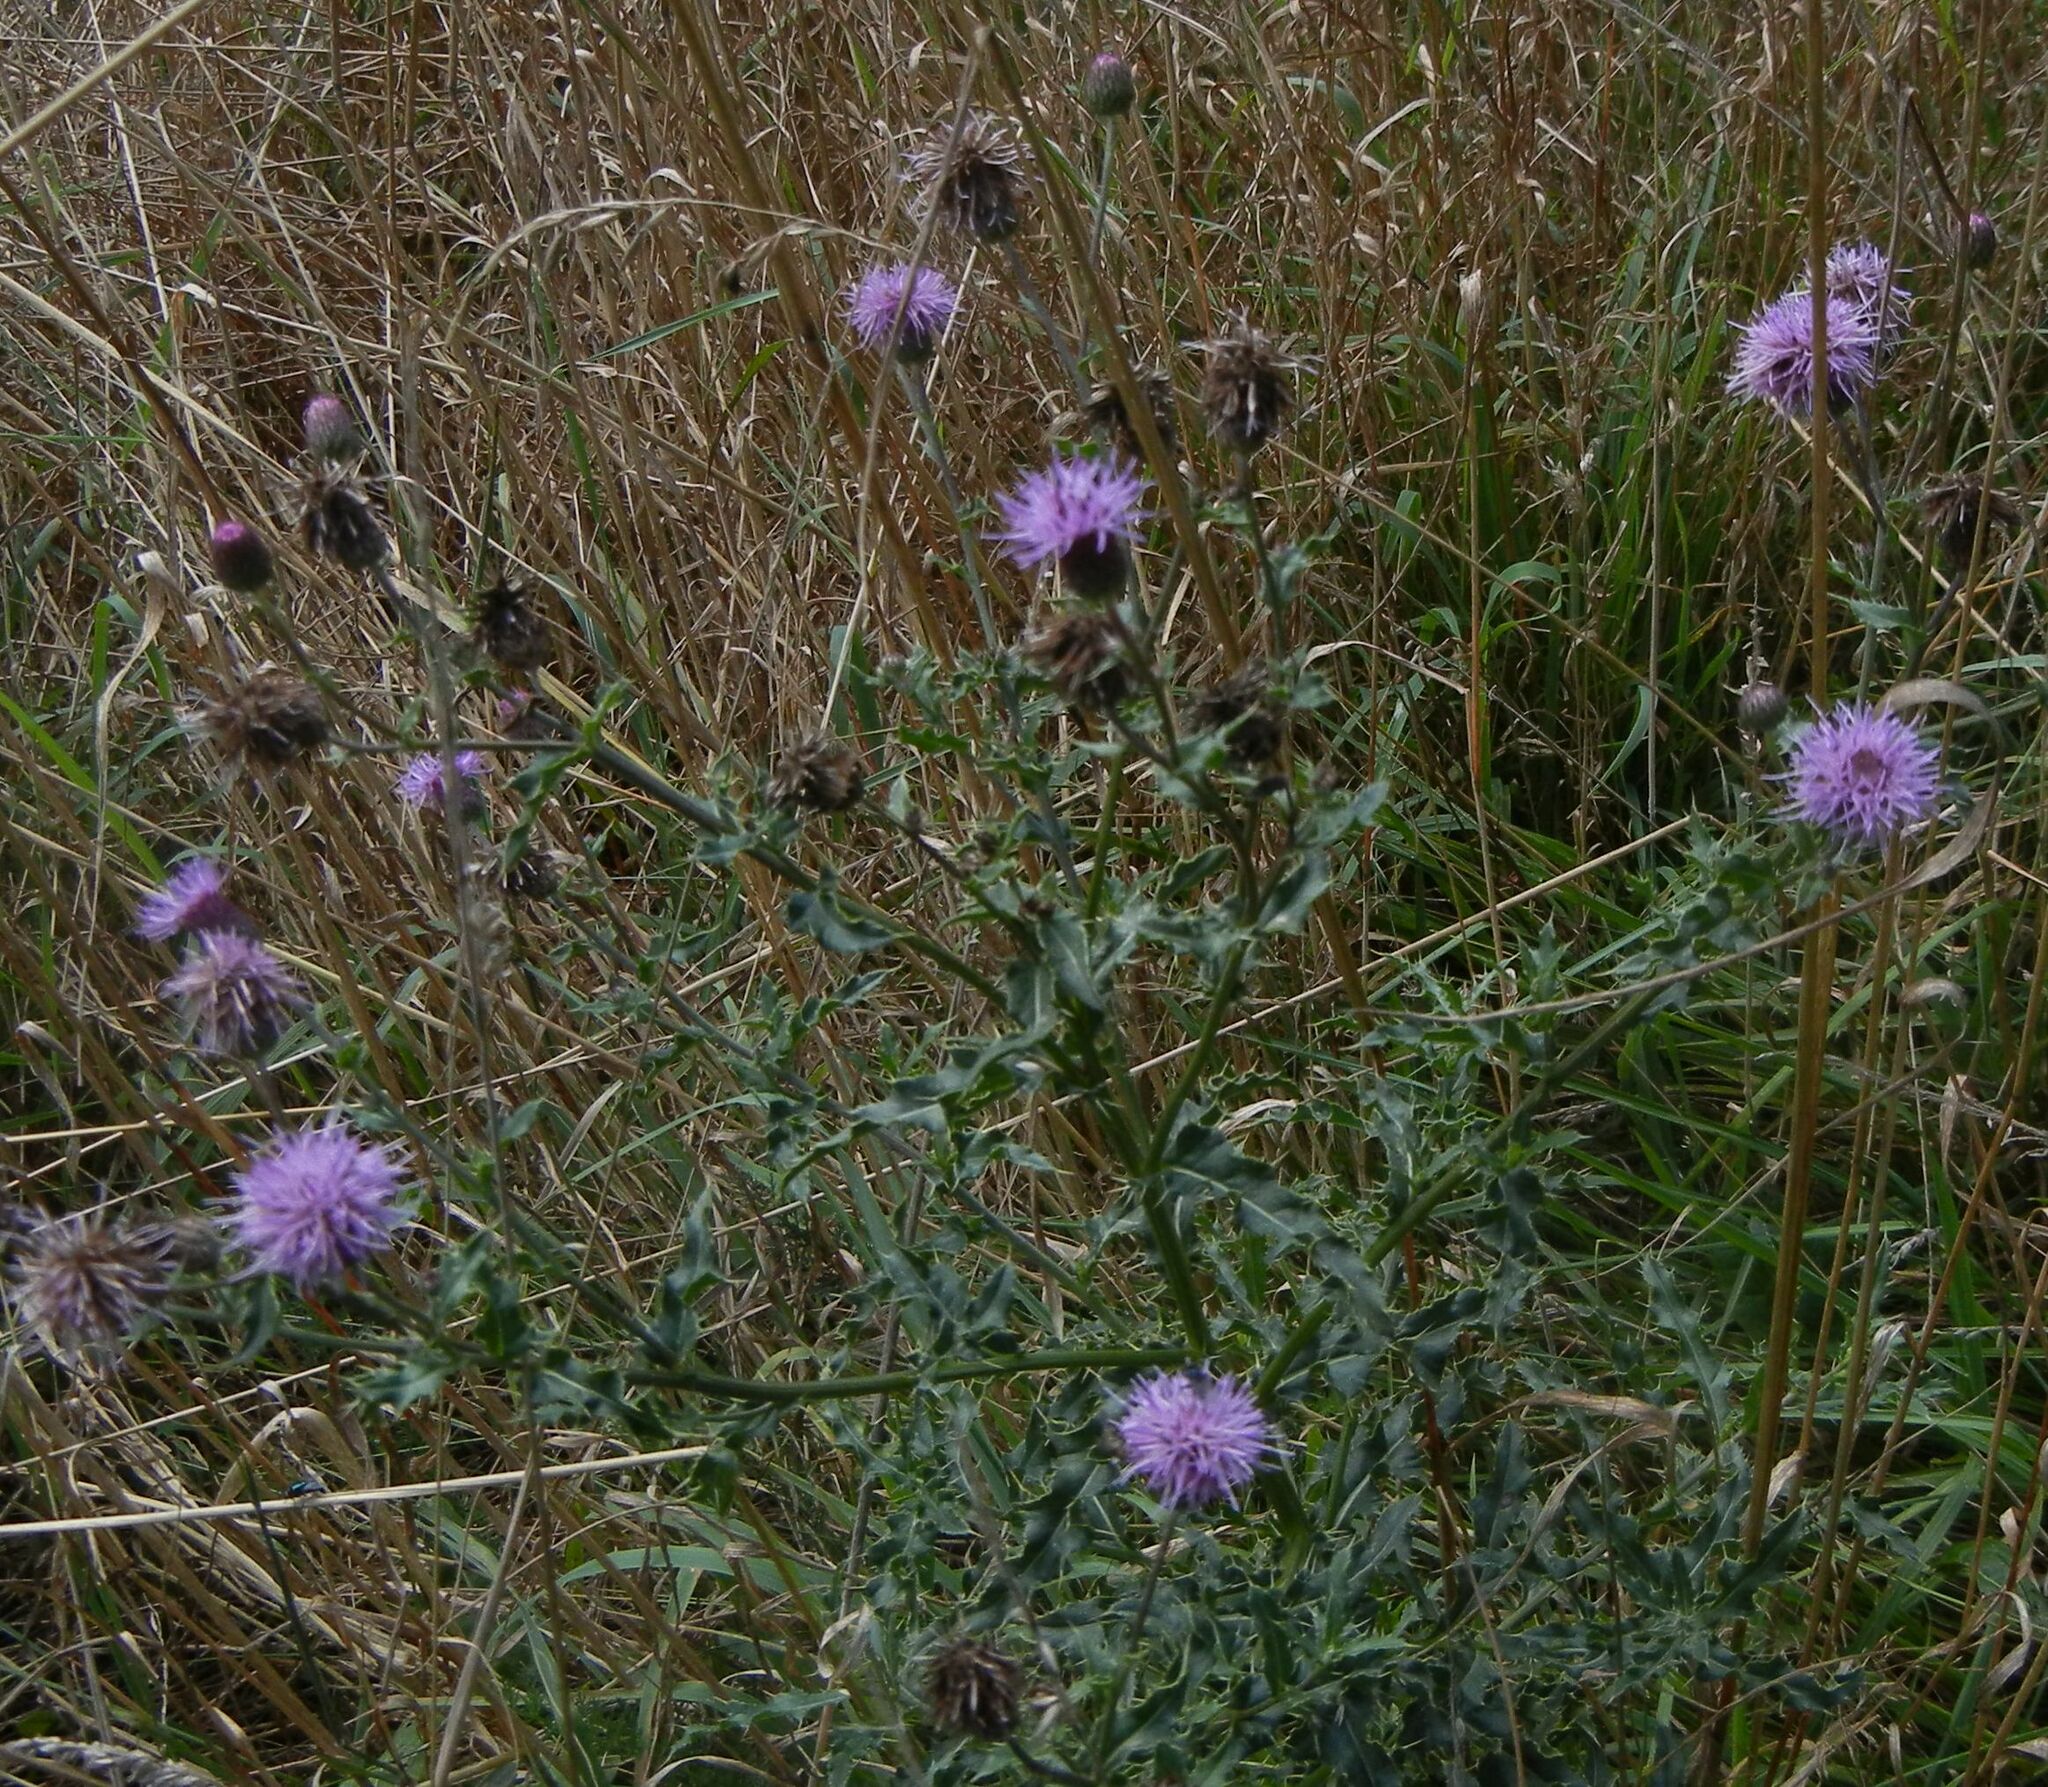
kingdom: Plantae
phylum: Tracheophyta
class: Magnoliopsida
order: Asterales
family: Asteraceae
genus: Cirsium
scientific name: Cirsium arvense
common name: Creeping thistle
